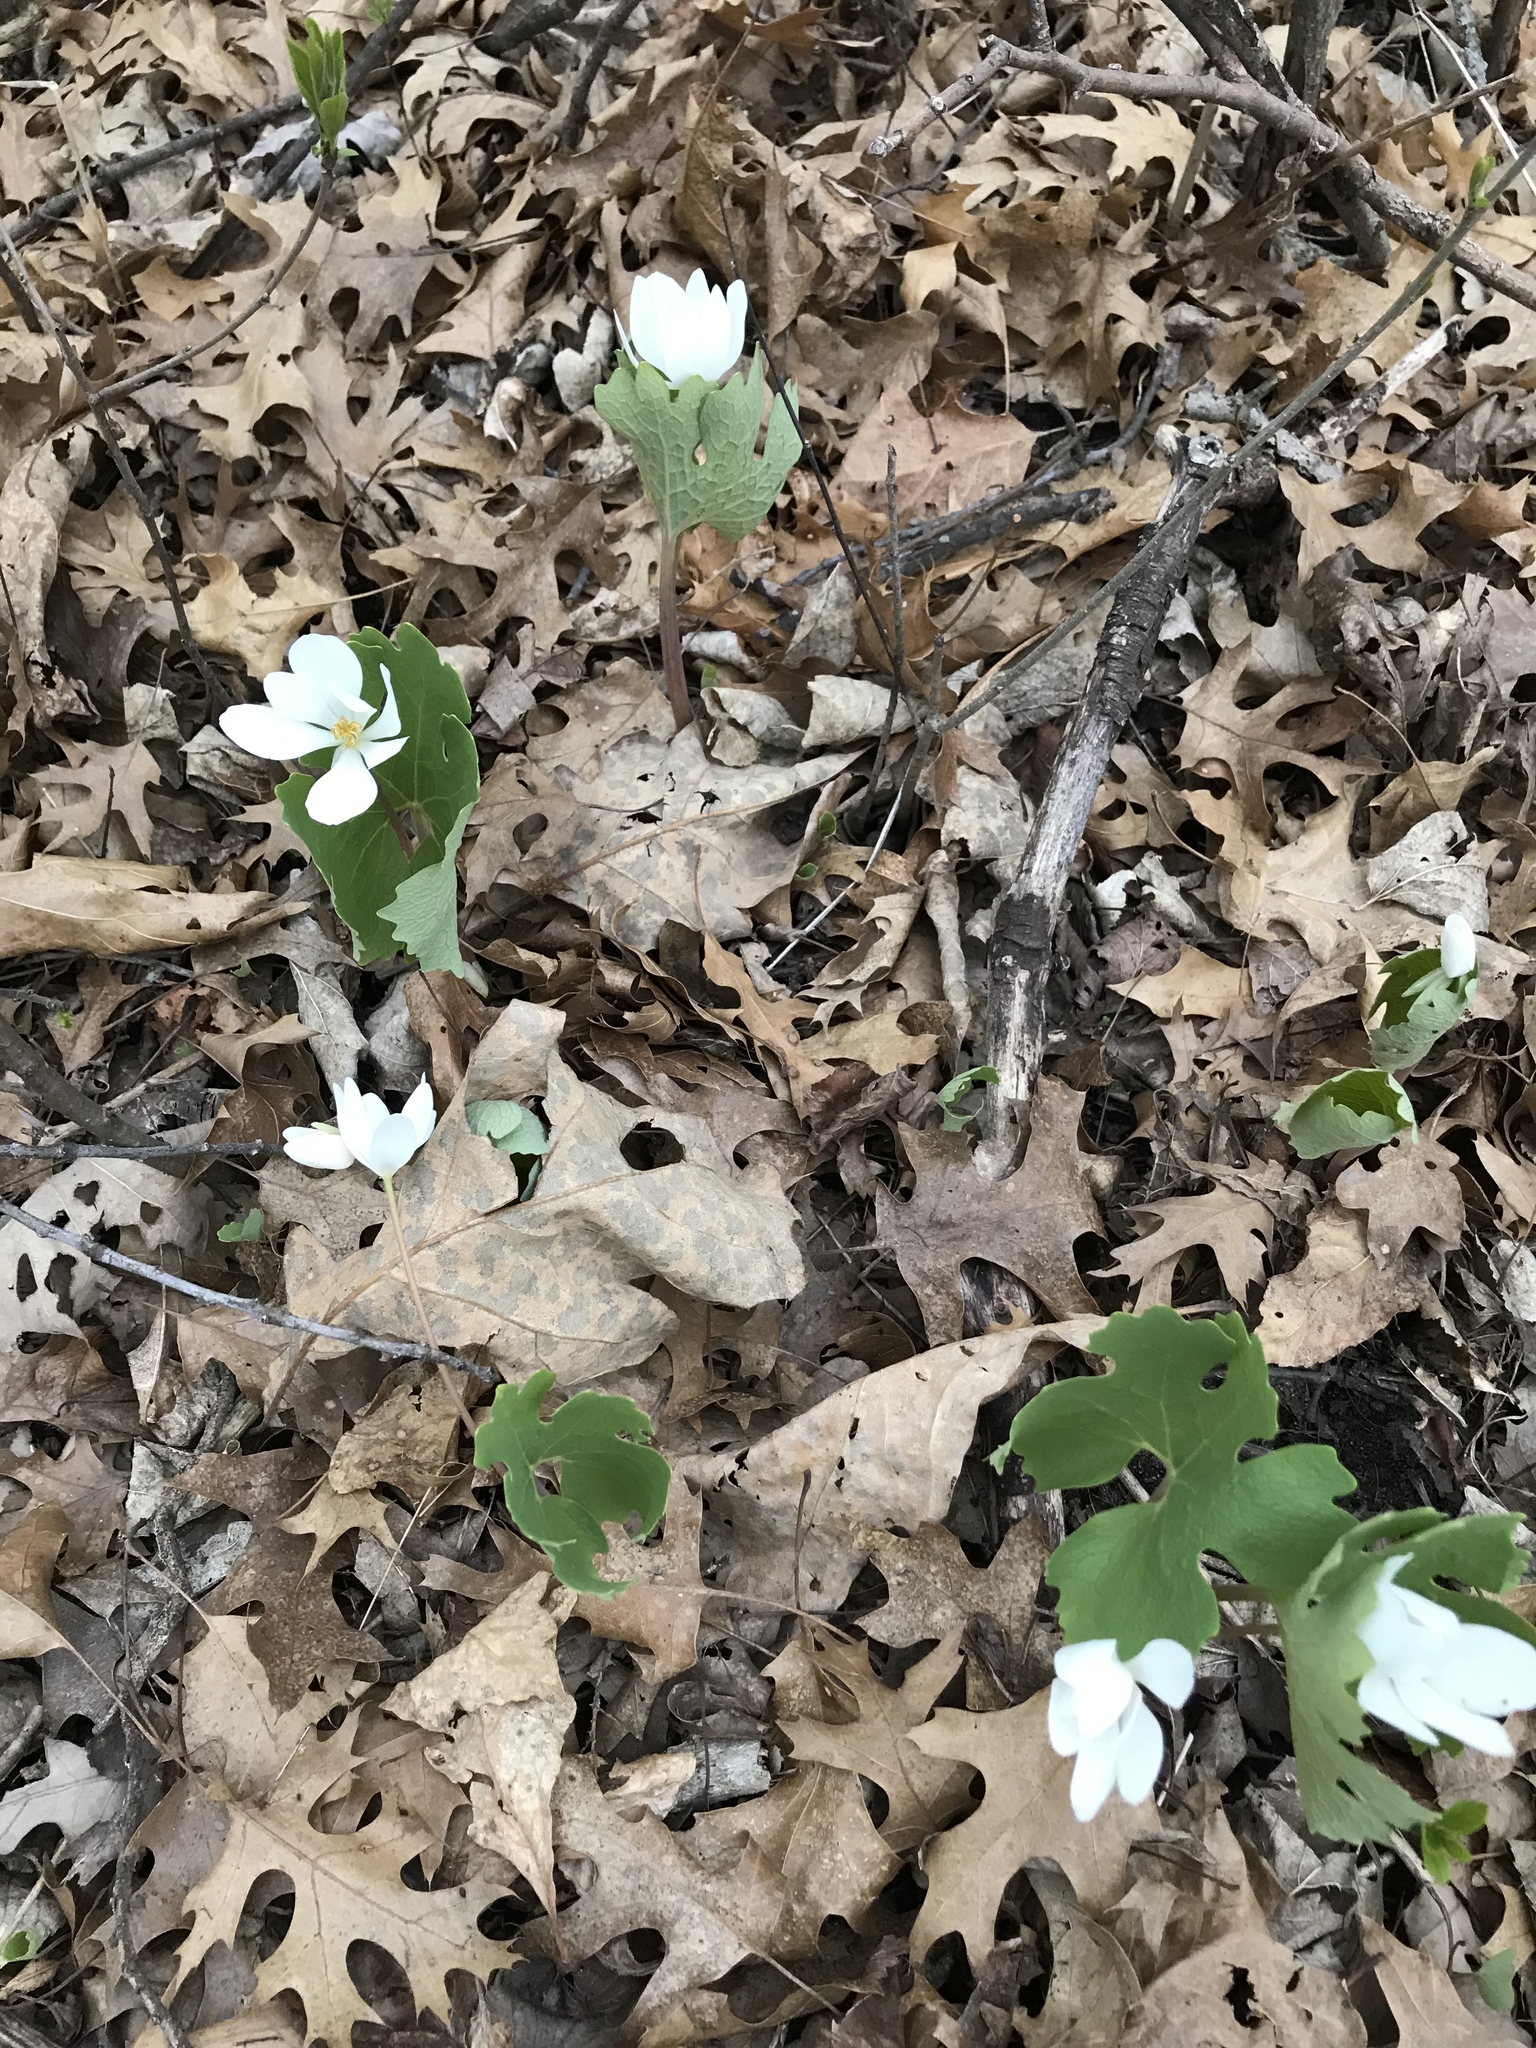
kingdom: Plantae
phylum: Tracheophyta
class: Magnoliopsida
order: Ranunculales
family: Papaveraceae
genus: Sanguinaria
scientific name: Sanguinaria canadensis
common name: Bloodroot
